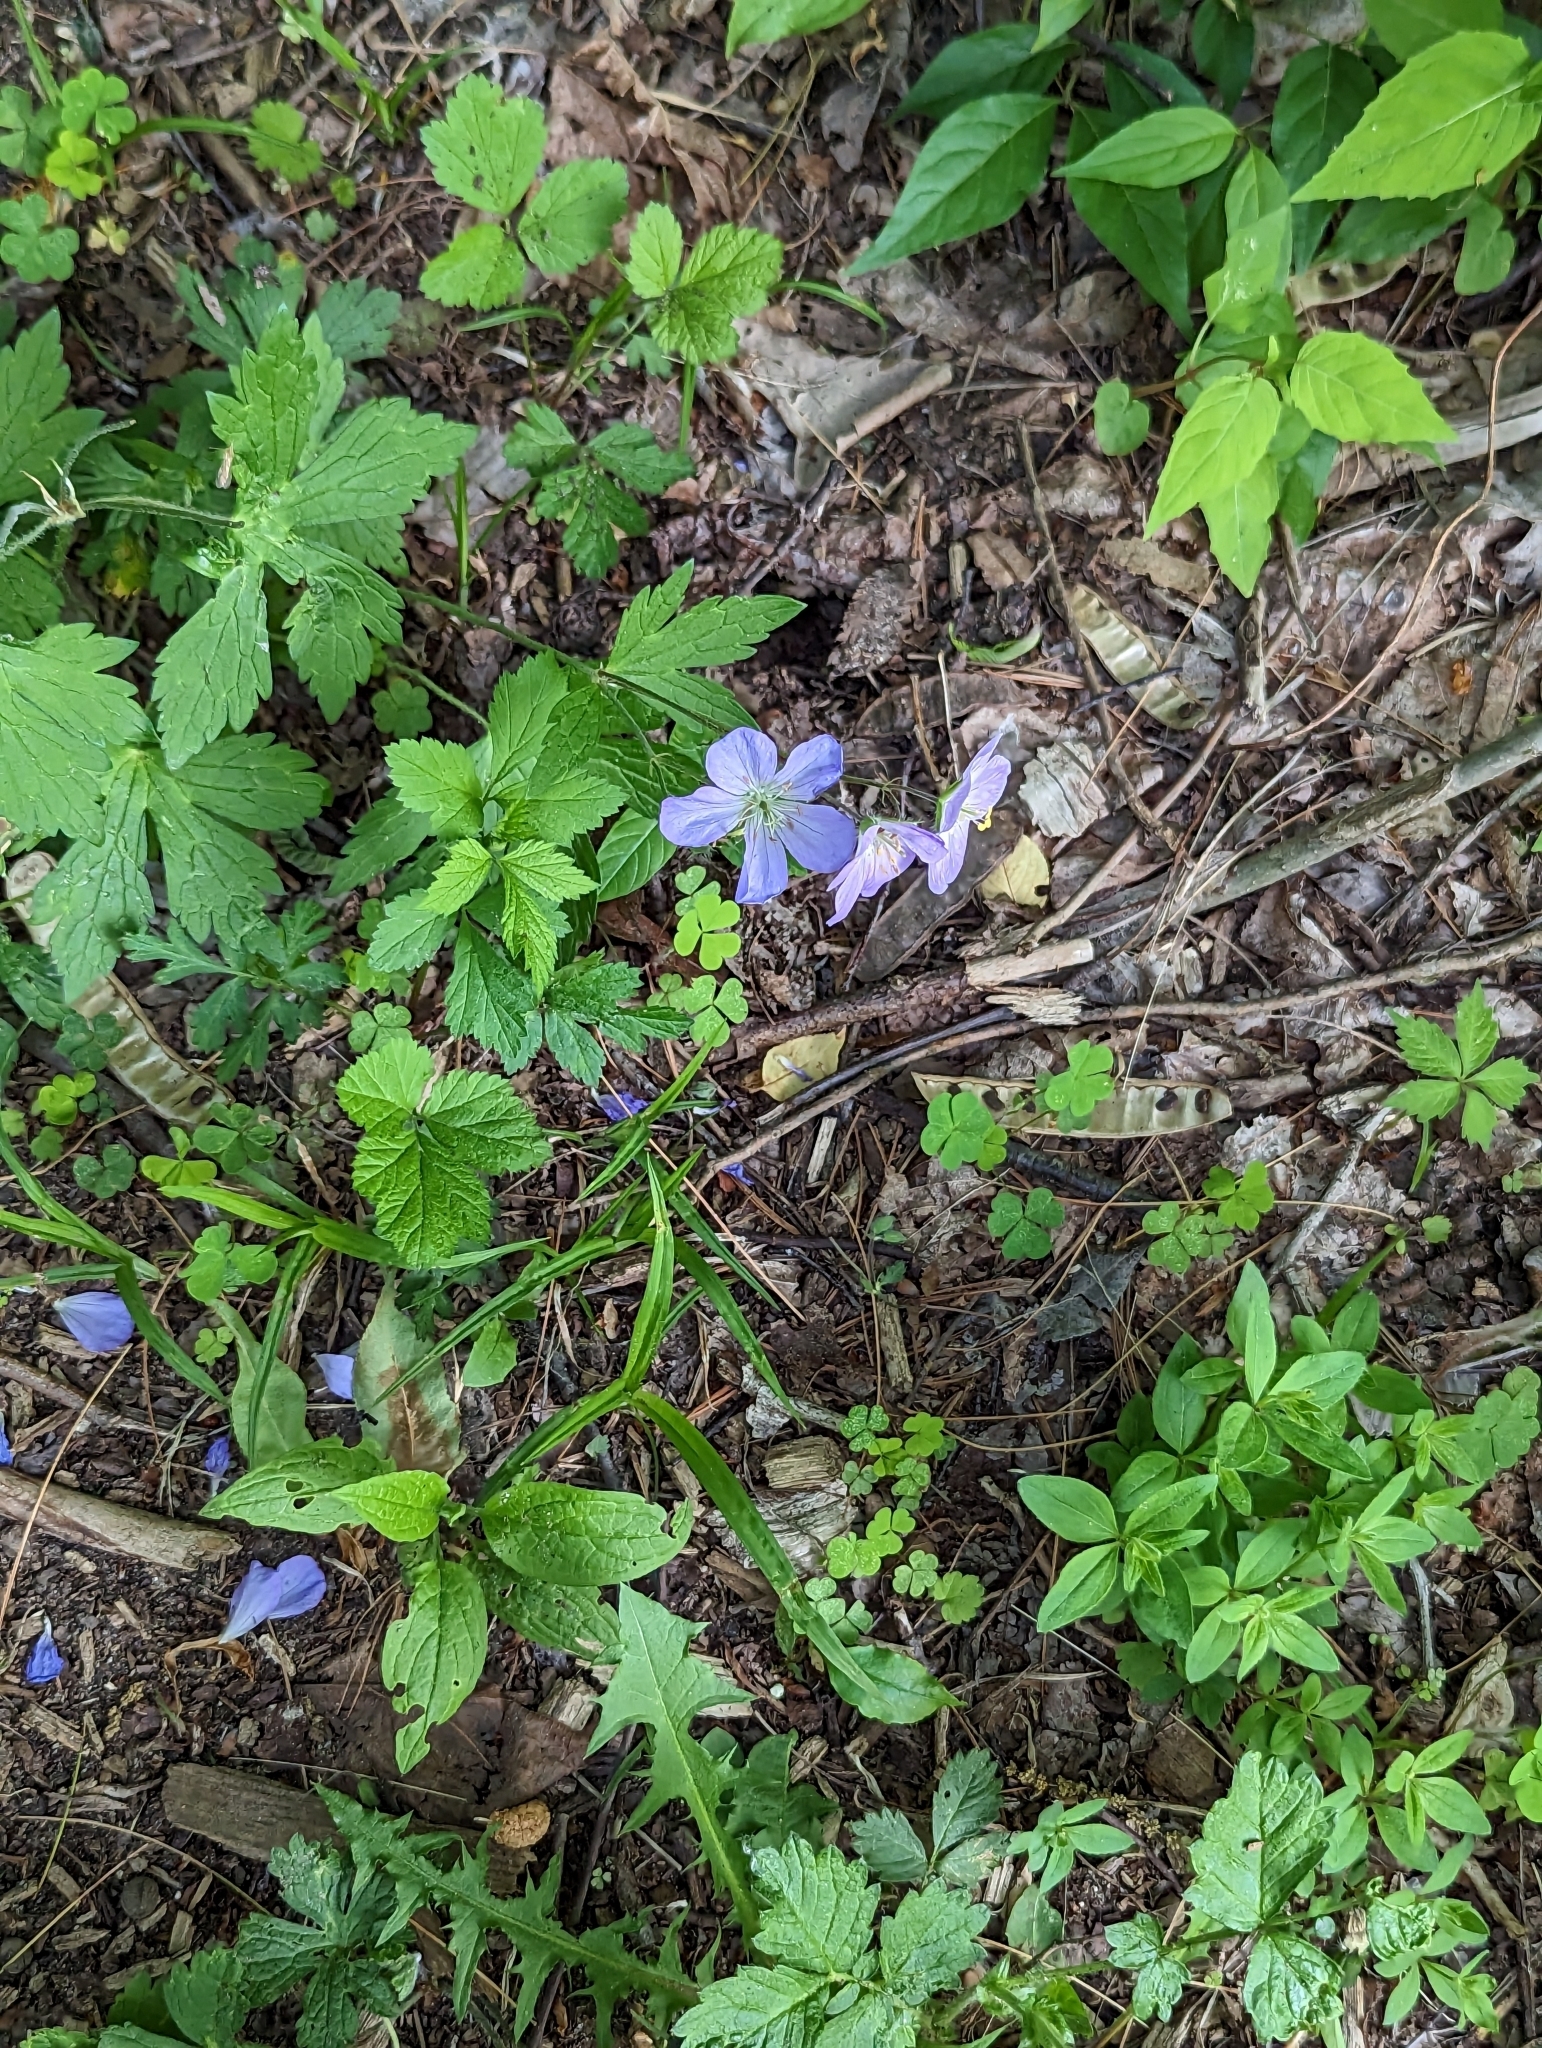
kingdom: Plantae
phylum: Tracheophyta
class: Magnoliopsida
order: Geraniales
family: Geraniaceae
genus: Geranium
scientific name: Geranium maculatum
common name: Spotted geranium
